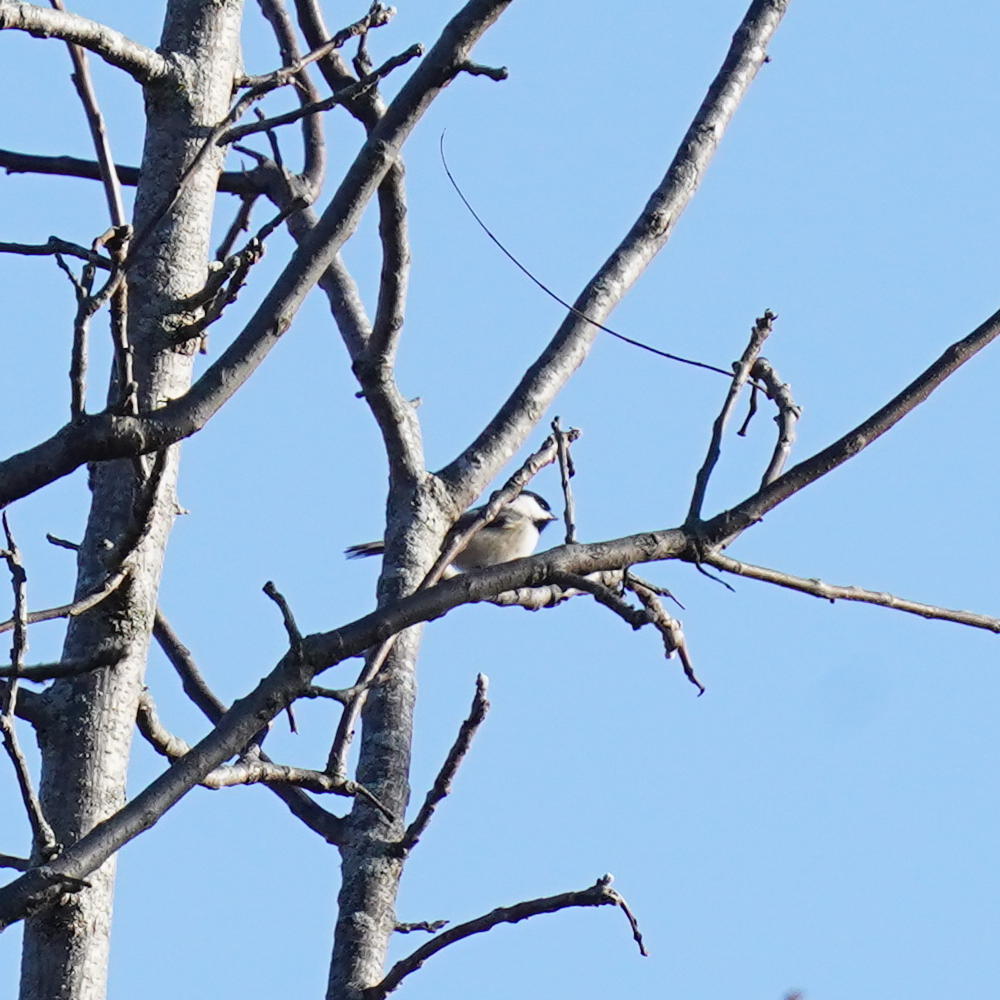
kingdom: Animalia
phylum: Chordata
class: Aves
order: Passeriformes
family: Paridae
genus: Poecile
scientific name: Poecile atricapillus
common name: Black-capped chickadee
